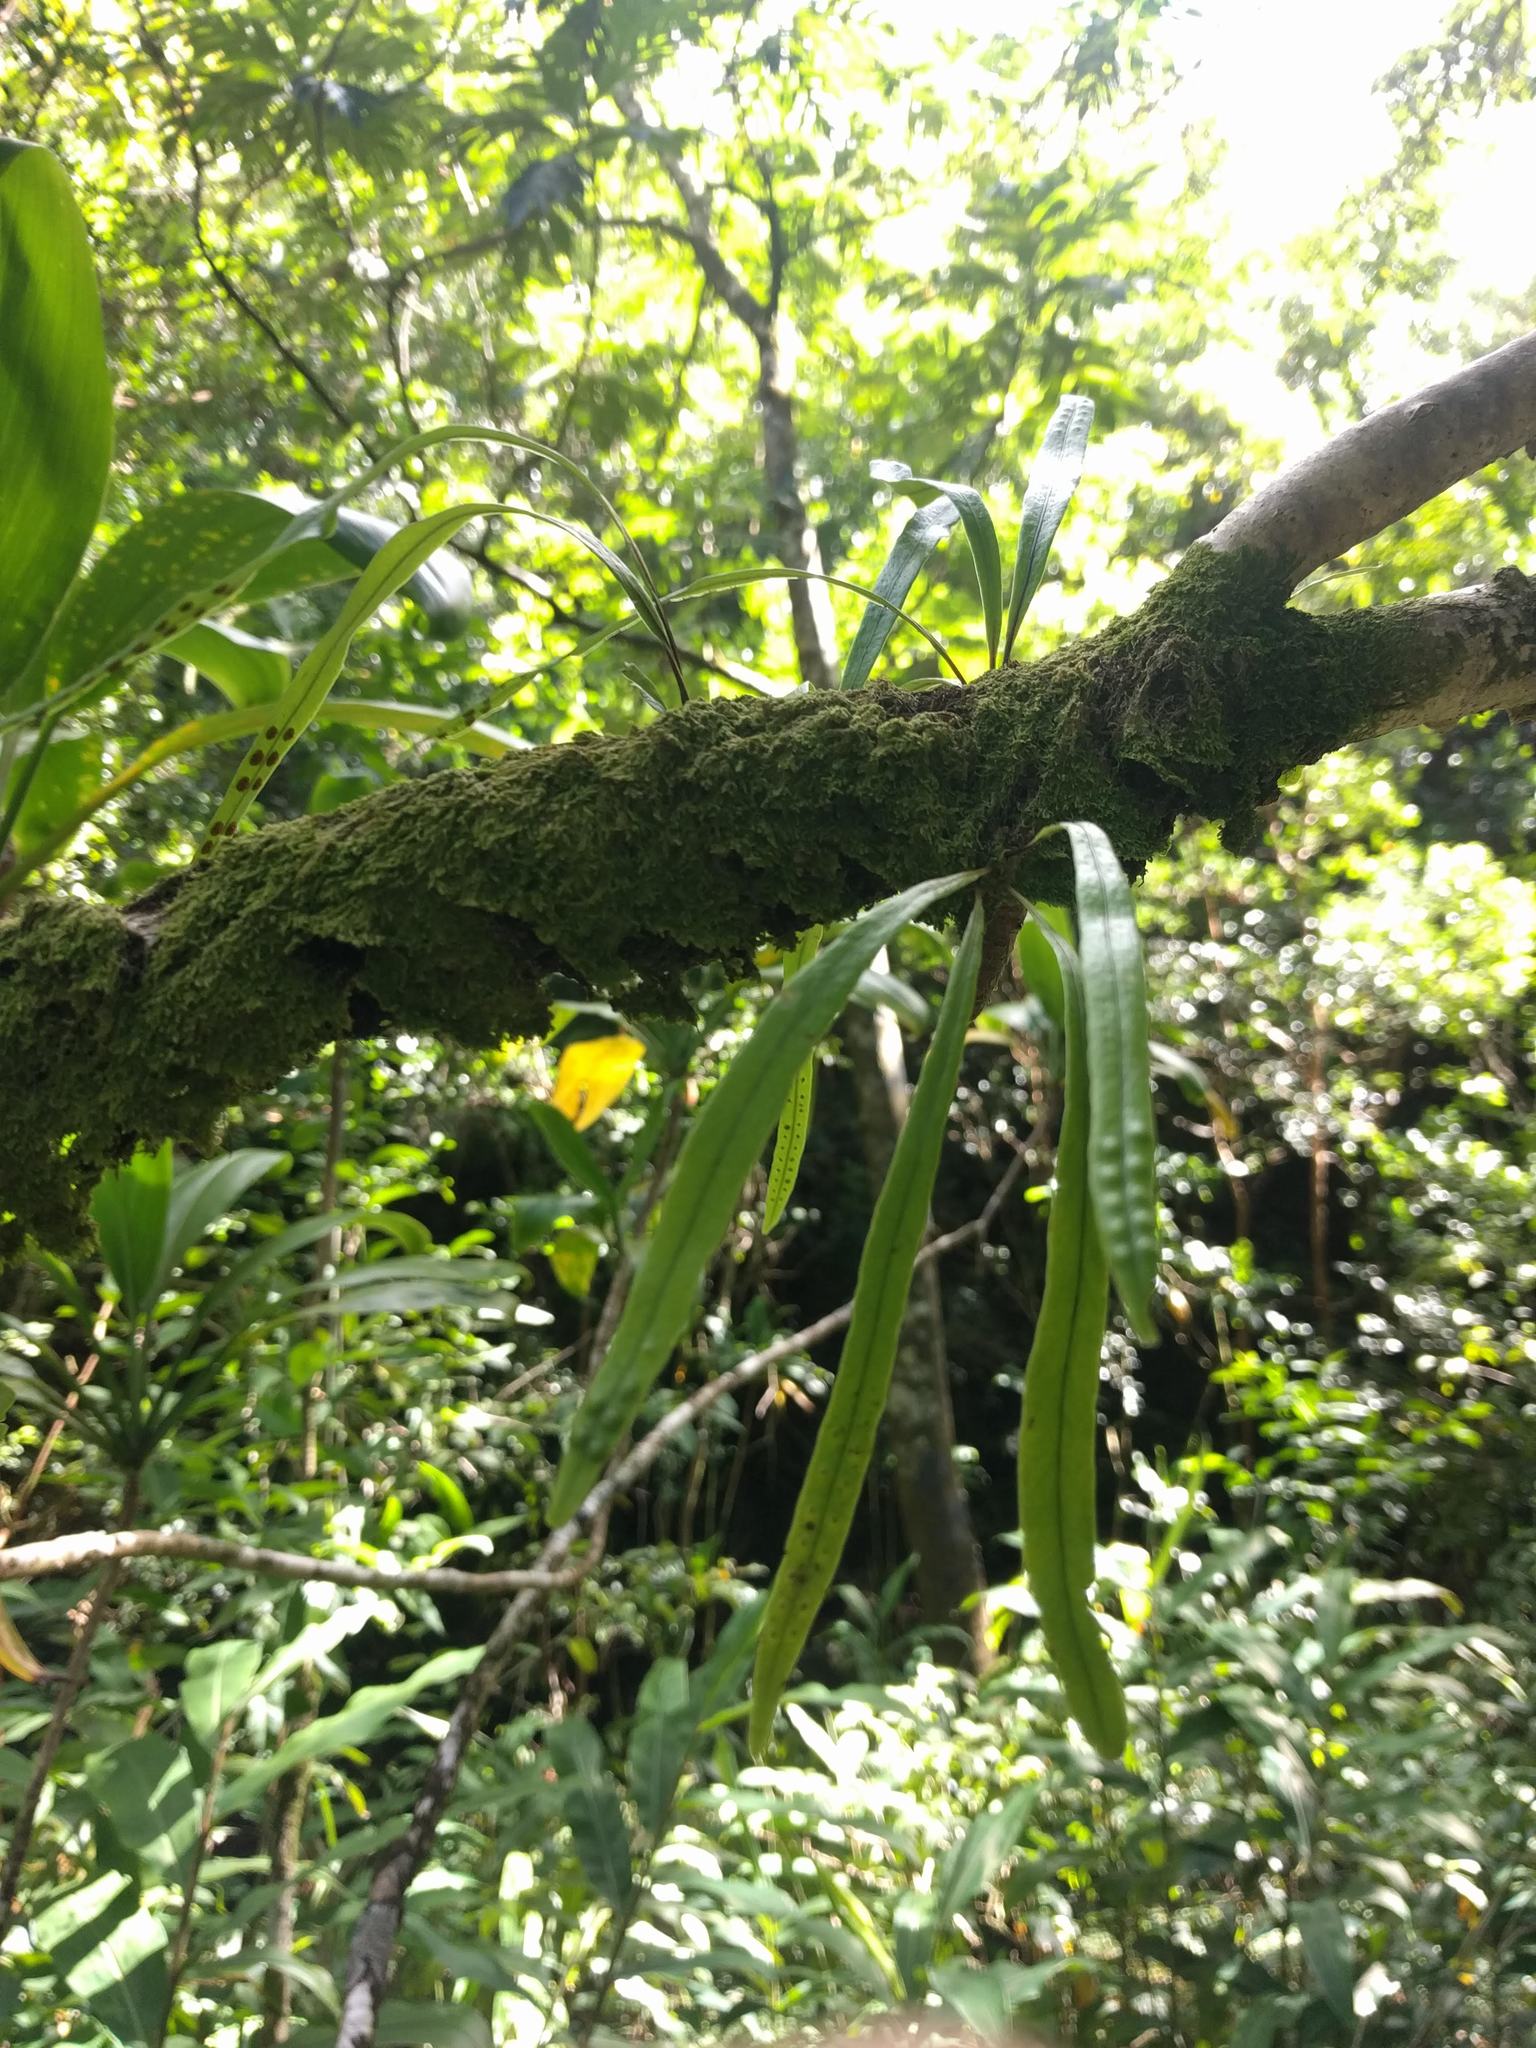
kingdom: Plantae
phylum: Tracheophyta
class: Polypodiopsida
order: Polypodiales
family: Polypodiaceae
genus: Lepisorus
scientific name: Lepisorus thunbergianus
